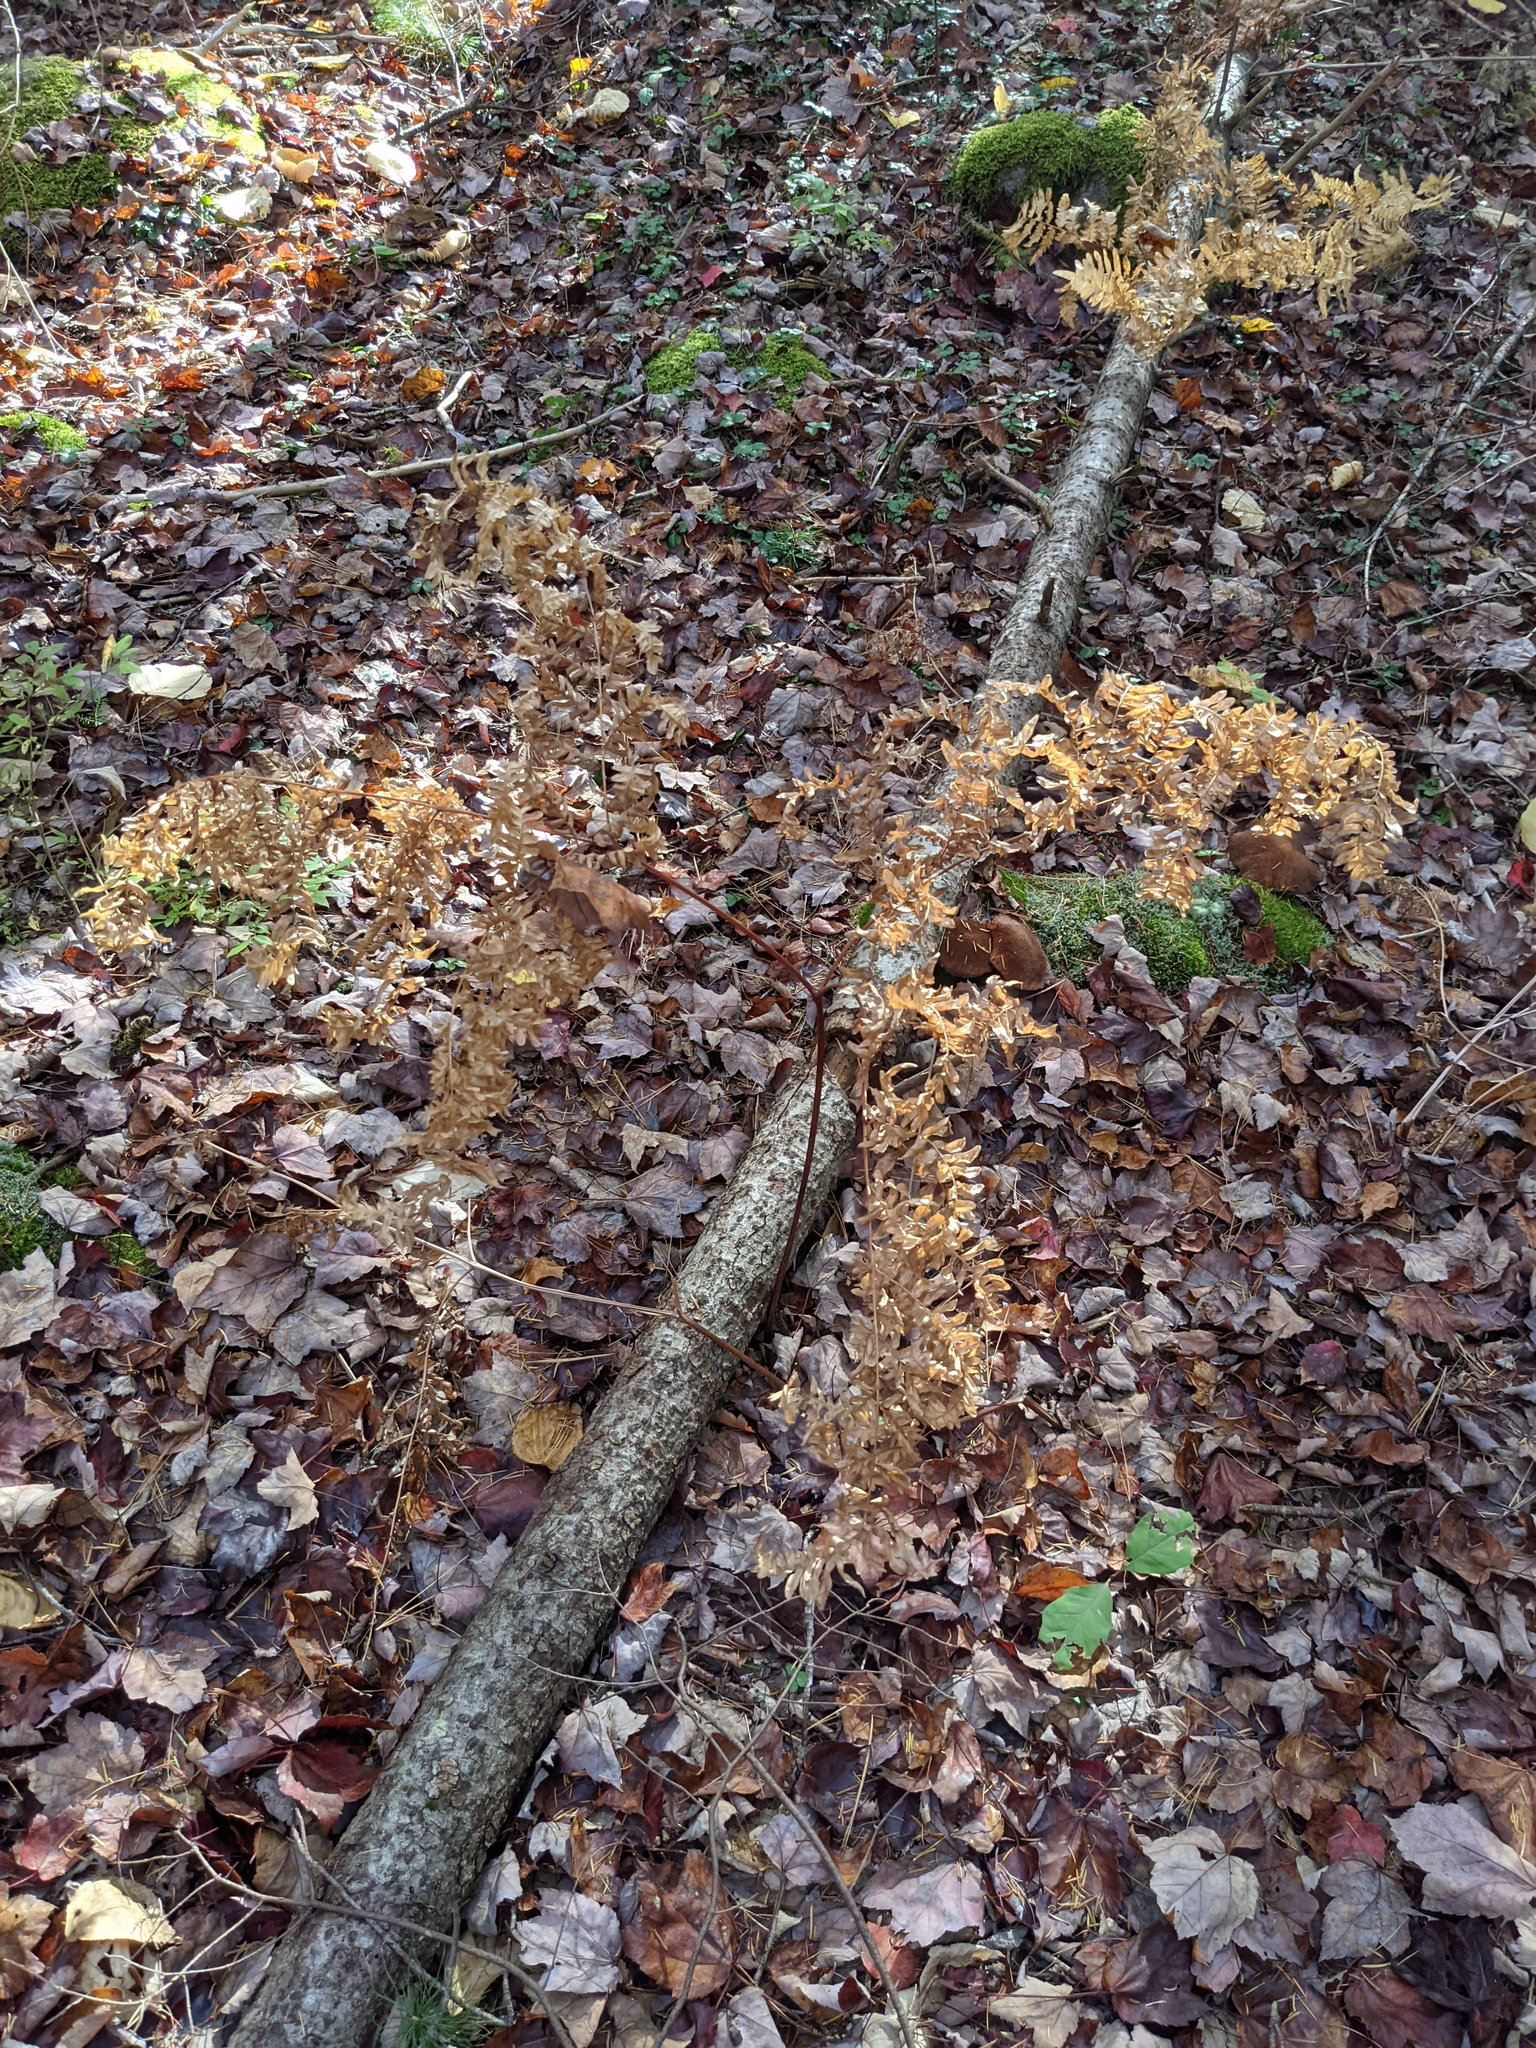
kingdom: Plantae
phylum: Tracheophyta
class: Polypodiopsida
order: Polypodiales
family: Dennstaedtiaceae
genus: Pteridium
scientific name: Pteridium aquilinum
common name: Bracken
